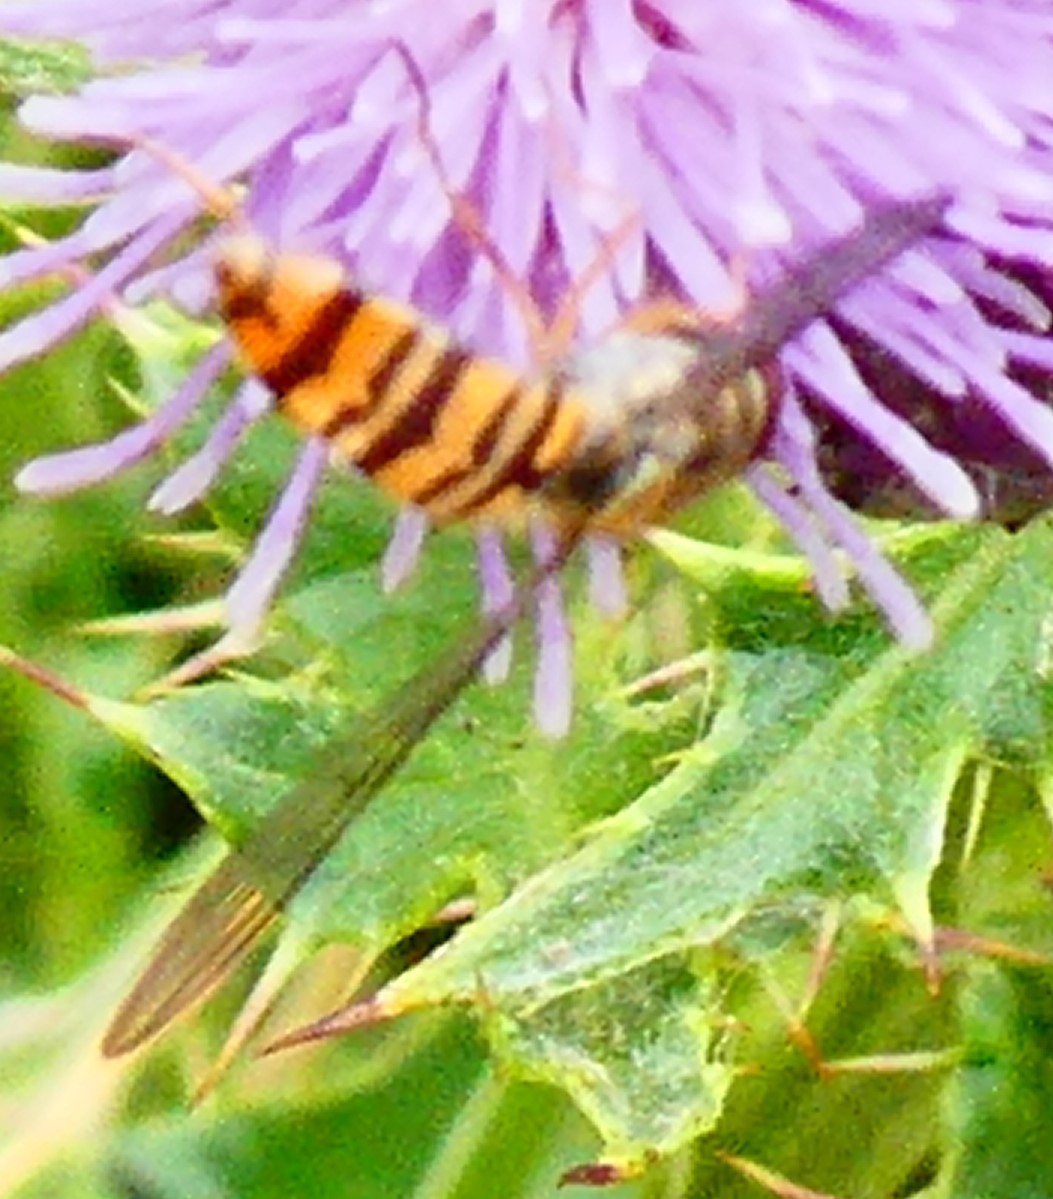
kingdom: Animalia
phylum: Arthropoda
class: Insecta
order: Diptera
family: Syrphidae
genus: Episyrphus
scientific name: Episyrphus balteatus
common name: Marmalade hoverfly
